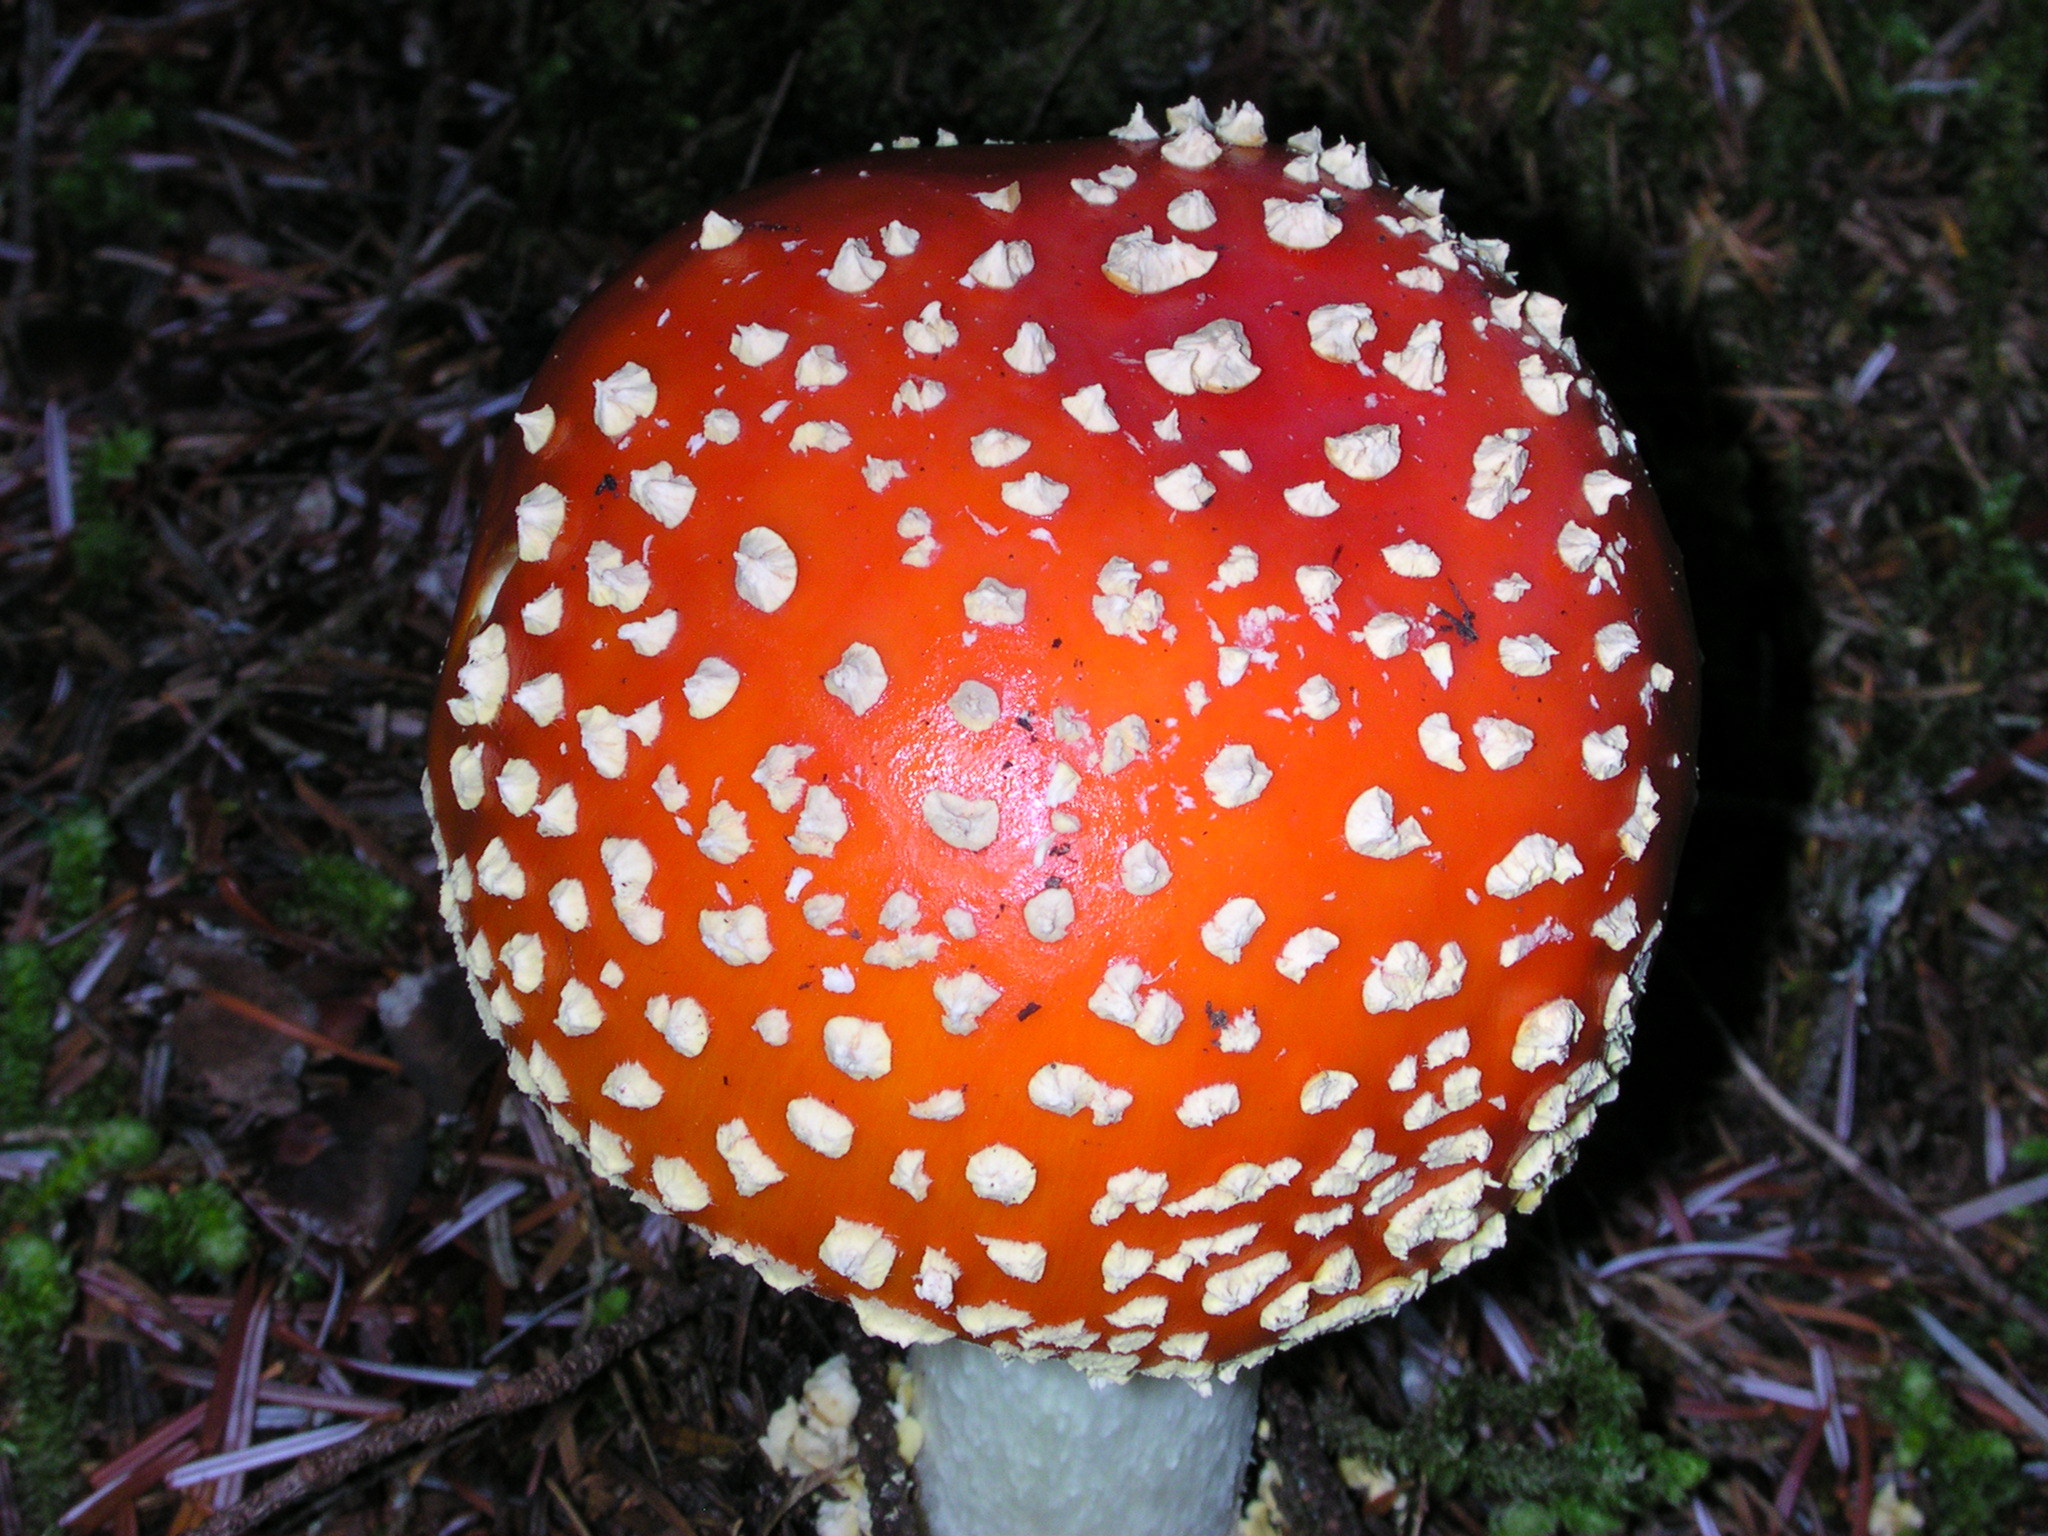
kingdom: Fungi
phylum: Basidiomycota
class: Agaricomycetes
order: Agaricales
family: Amanitaceae
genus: Amanita
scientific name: Amanita muscaria
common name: Fly agaric
